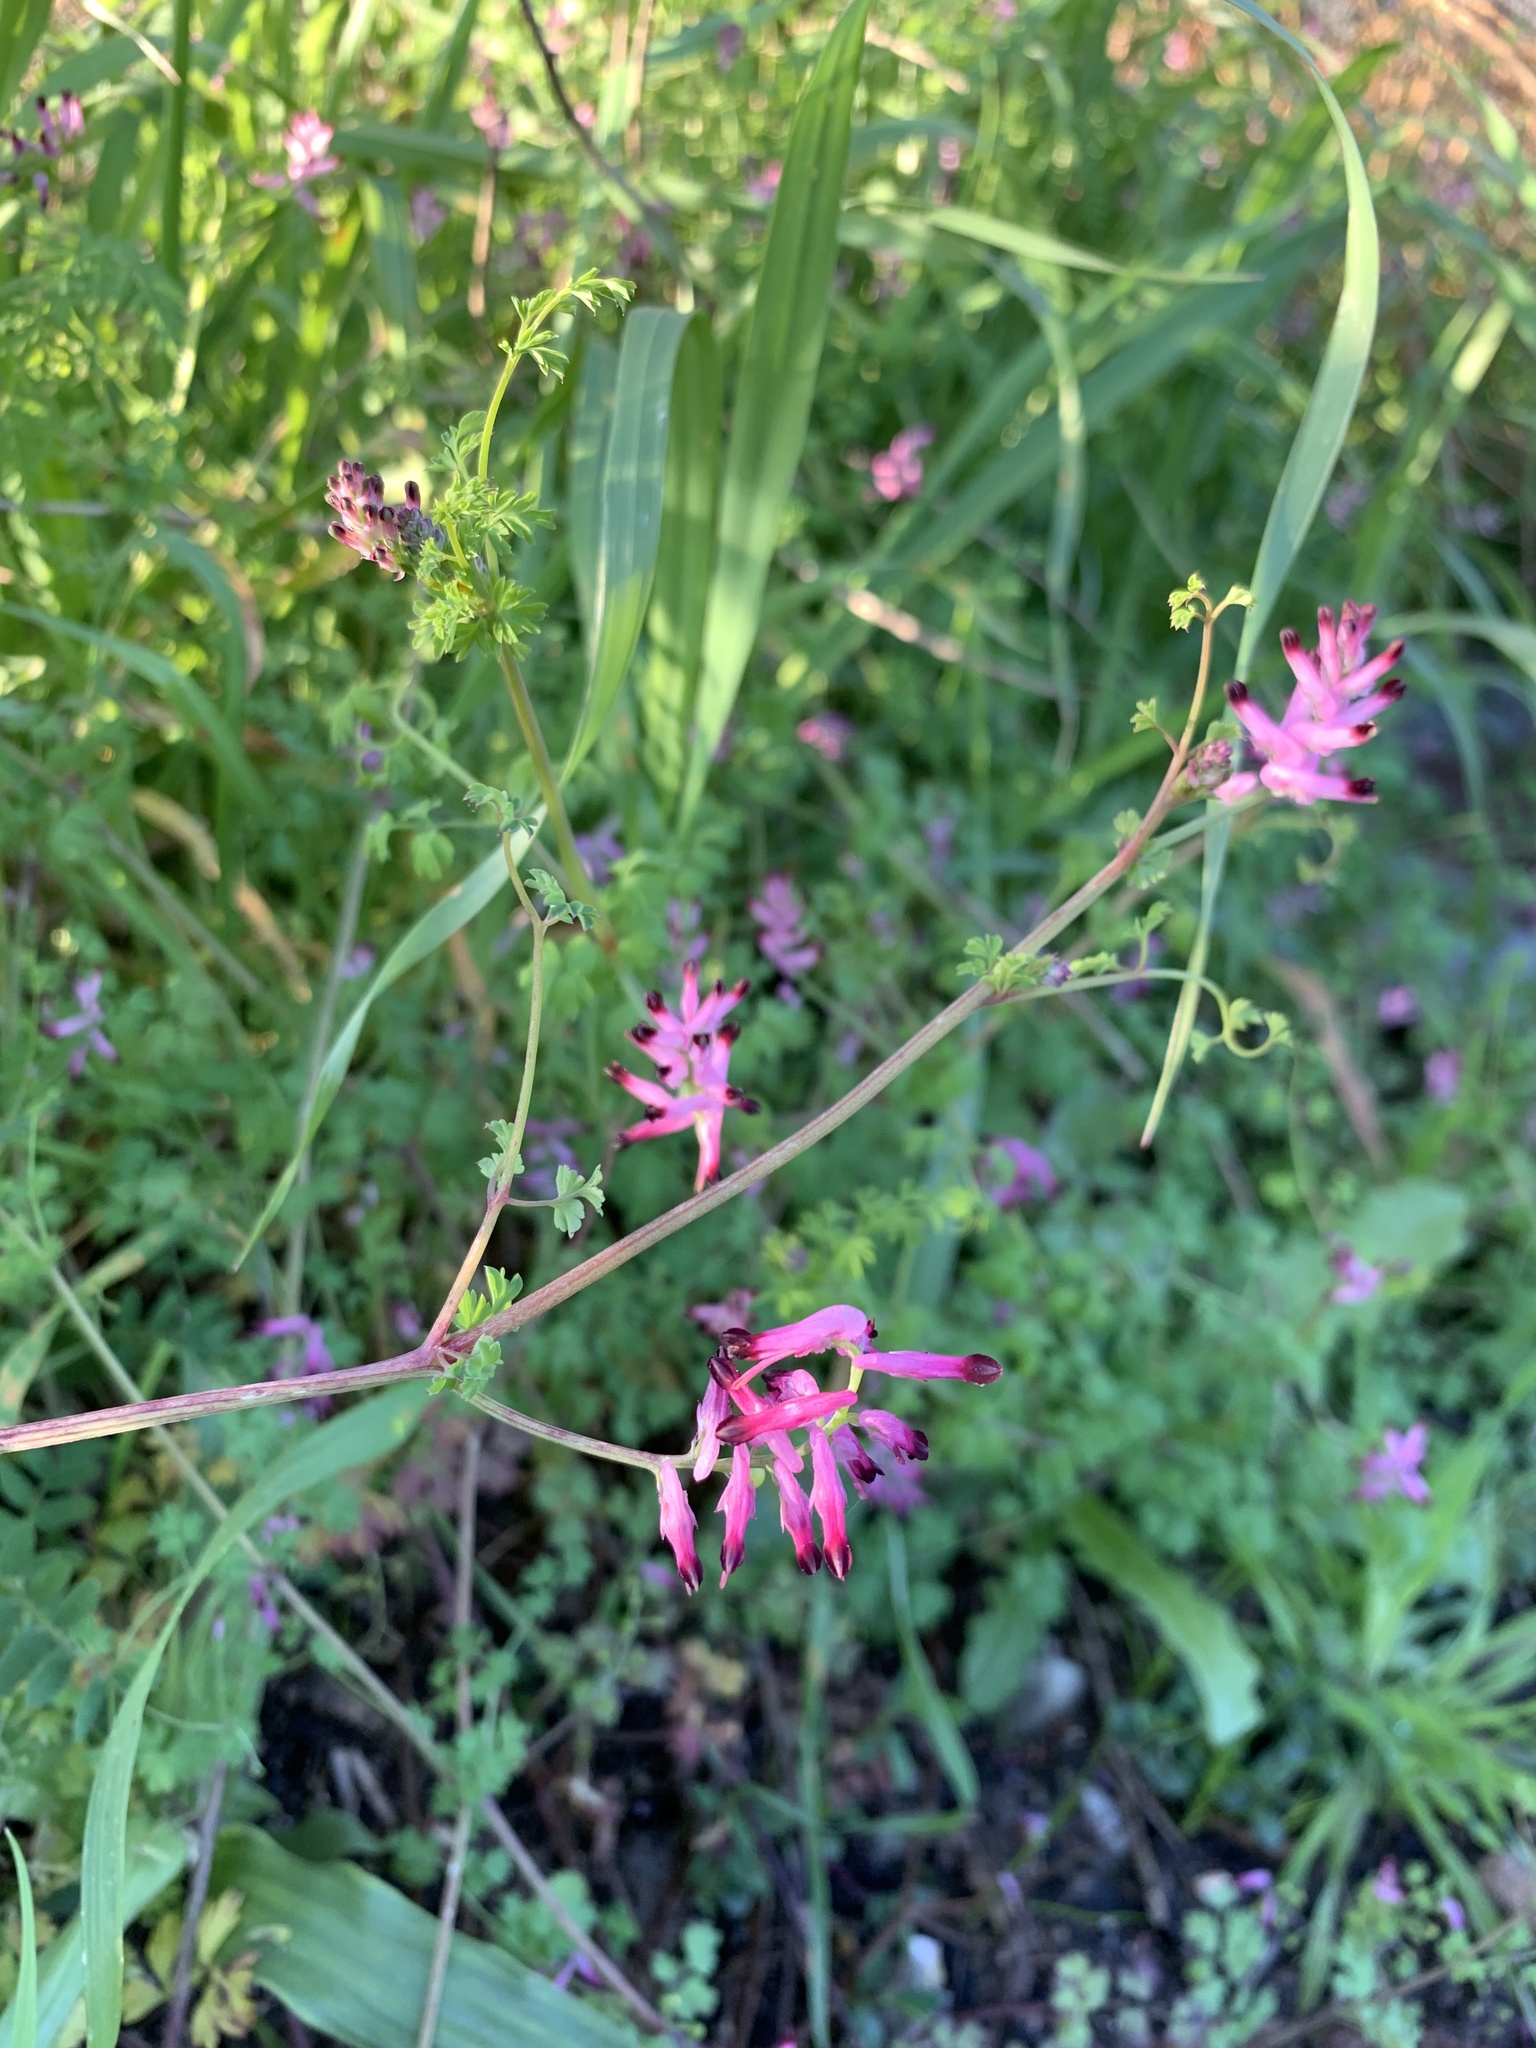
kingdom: Plantae
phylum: Tracheophyta
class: Magnoliopsida
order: Ranunculales
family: Papaveraceae
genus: Fumaria
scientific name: Fumaria muralis
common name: Common ramping-fumitory
